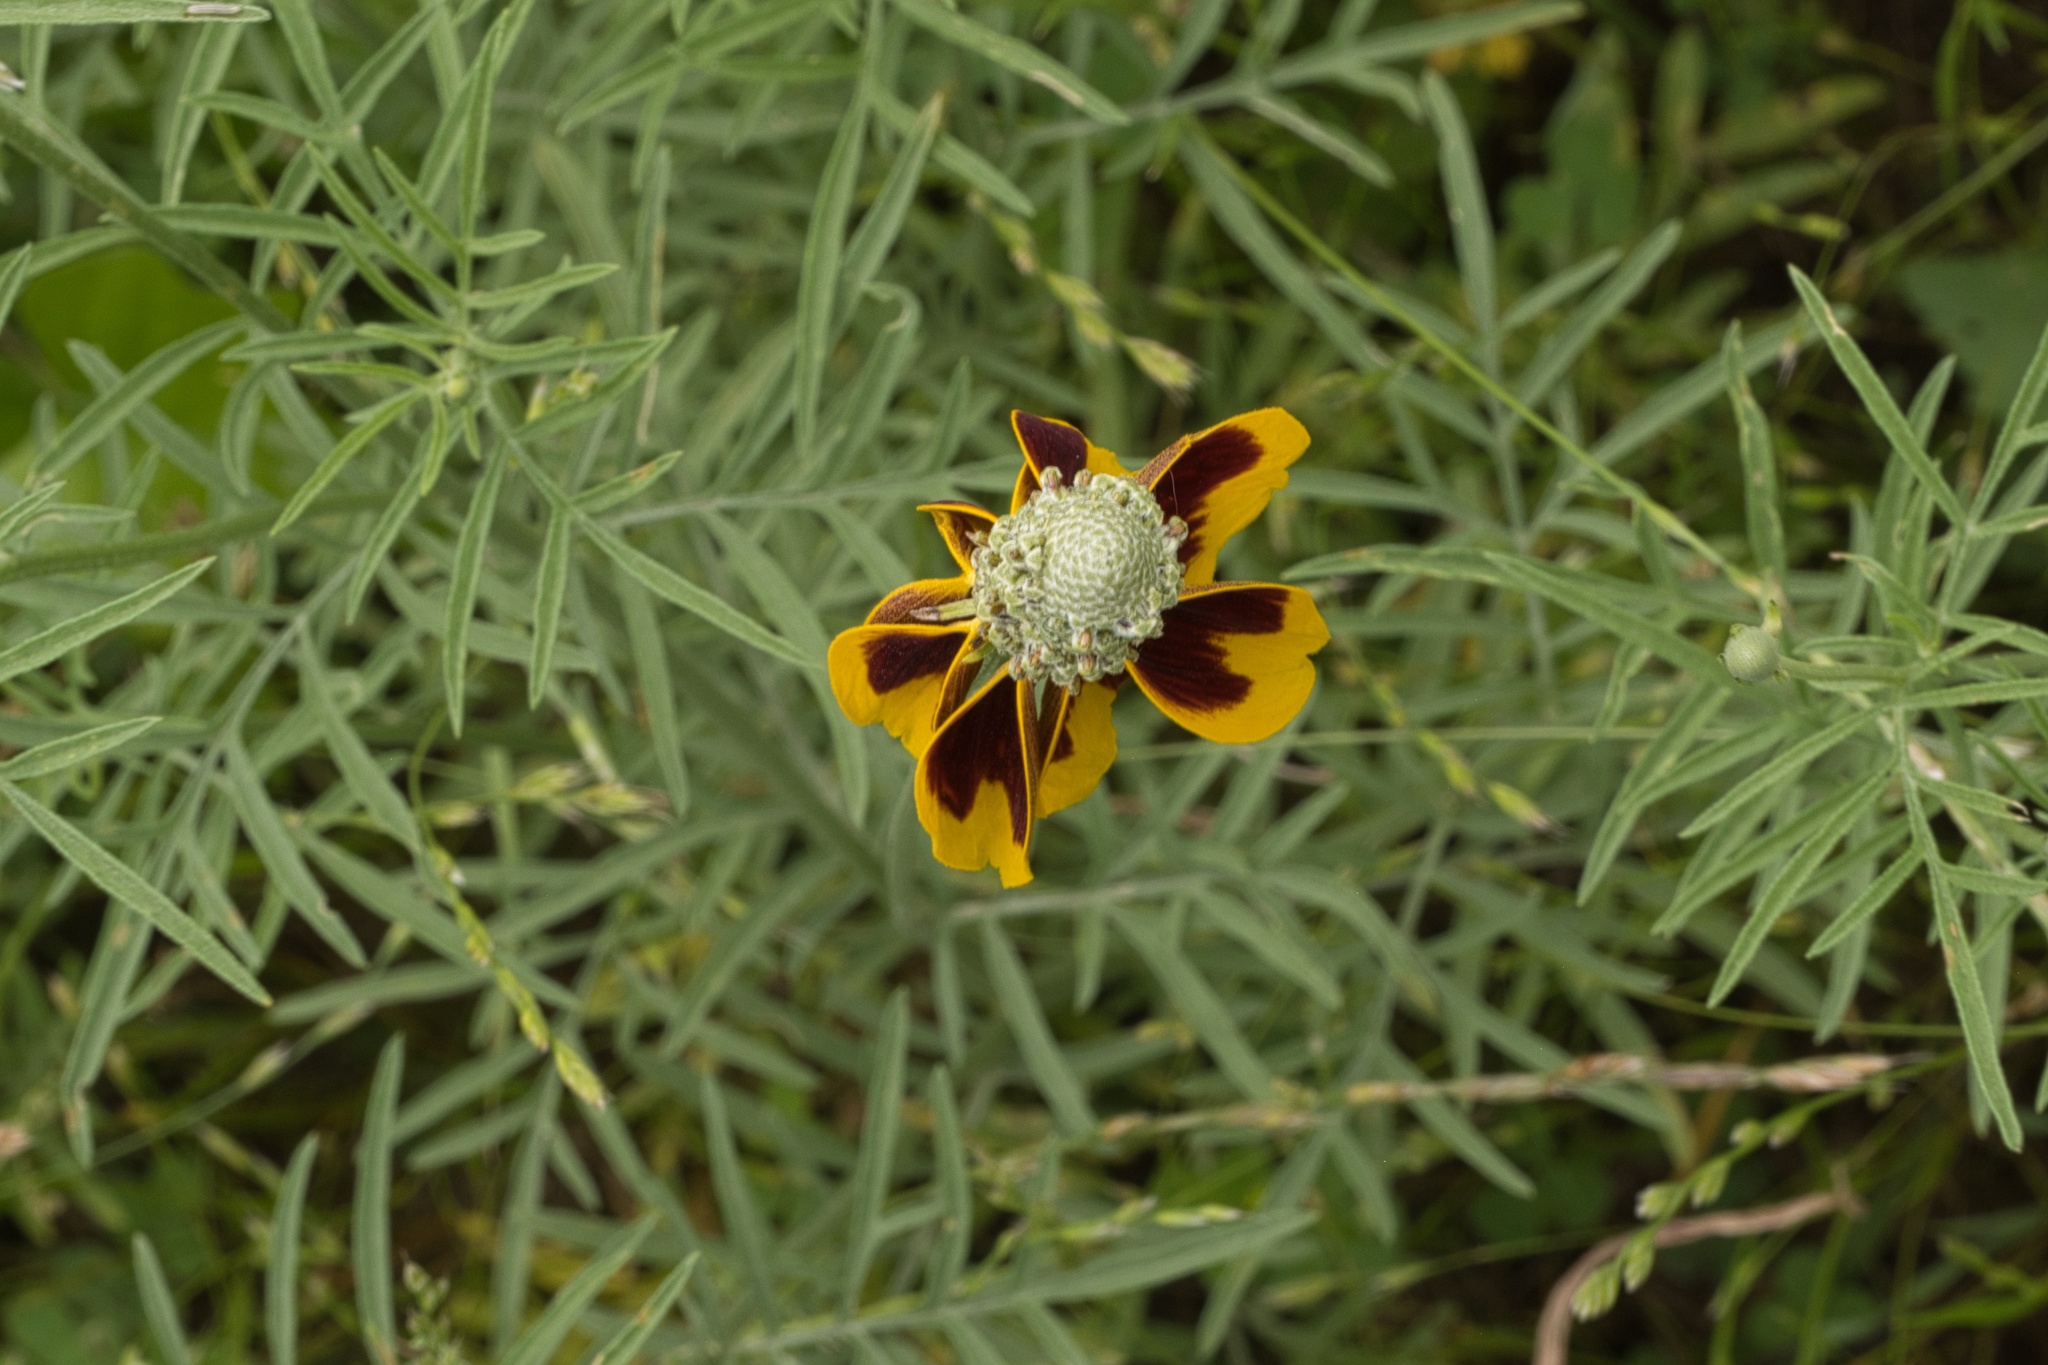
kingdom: Plantae
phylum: Tracheophyta
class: Magnoliopsida
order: Asterales
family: Asteraceae
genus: Ratibida
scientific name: Ratibida columnifera
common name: Prairie coneflower
